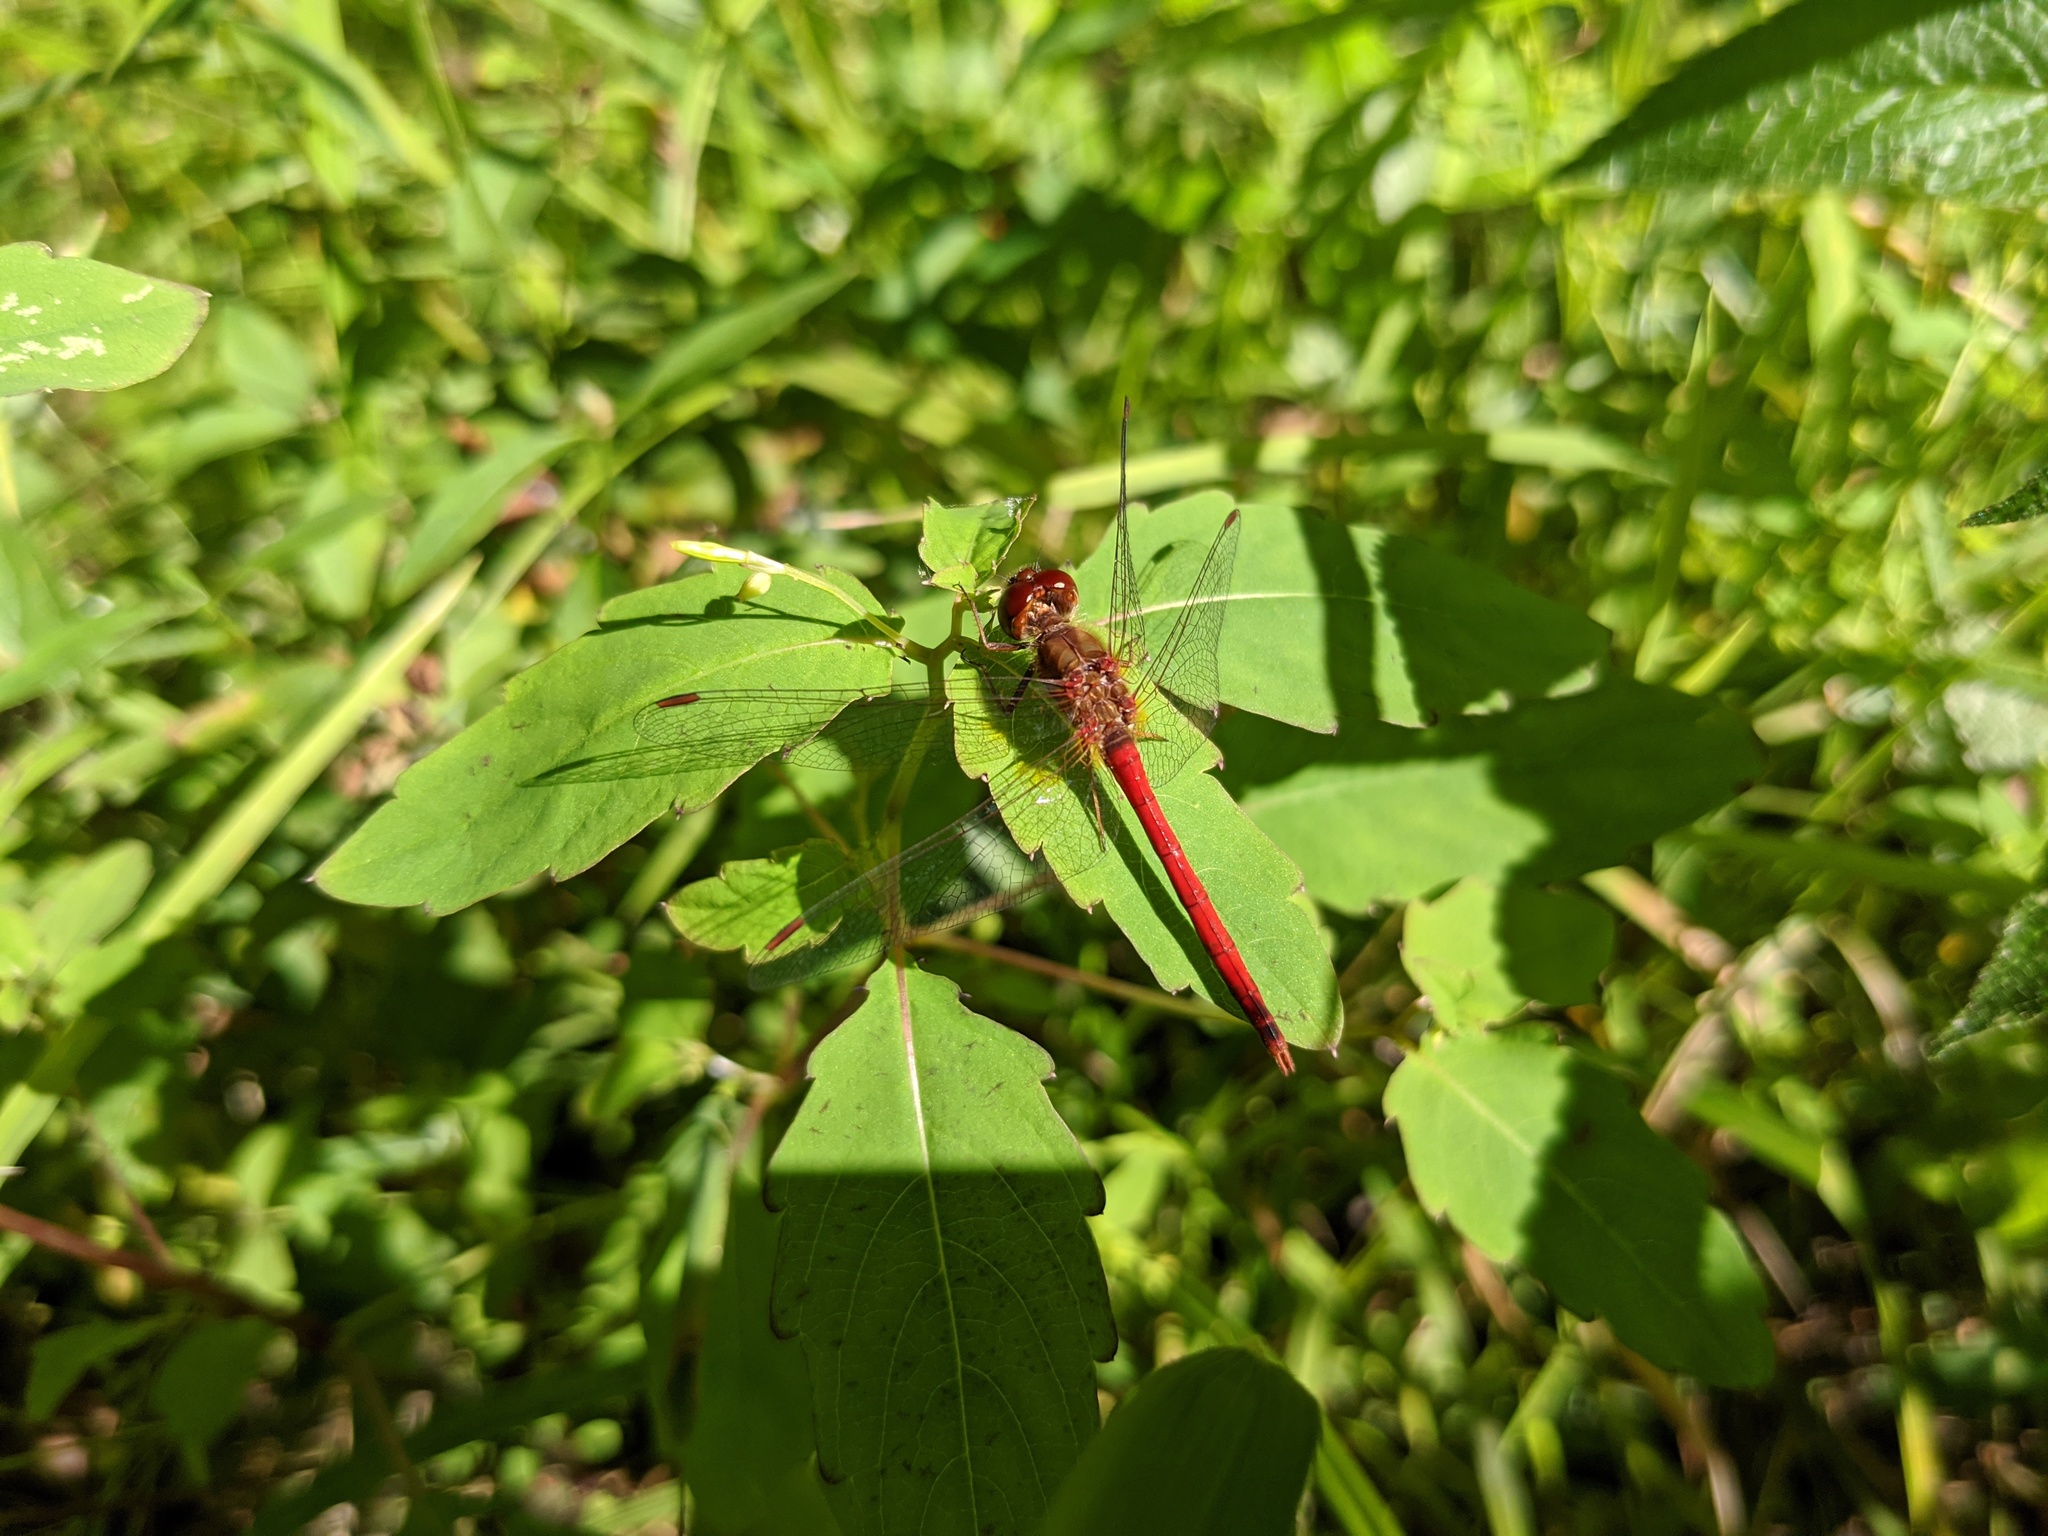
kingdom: Animalia
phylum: Arthropoda
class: Insecta
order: Odonata
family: Libellulidae
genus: Sympetrum
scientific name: Sympetrum vicinum
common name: Autumn meadowhawk
